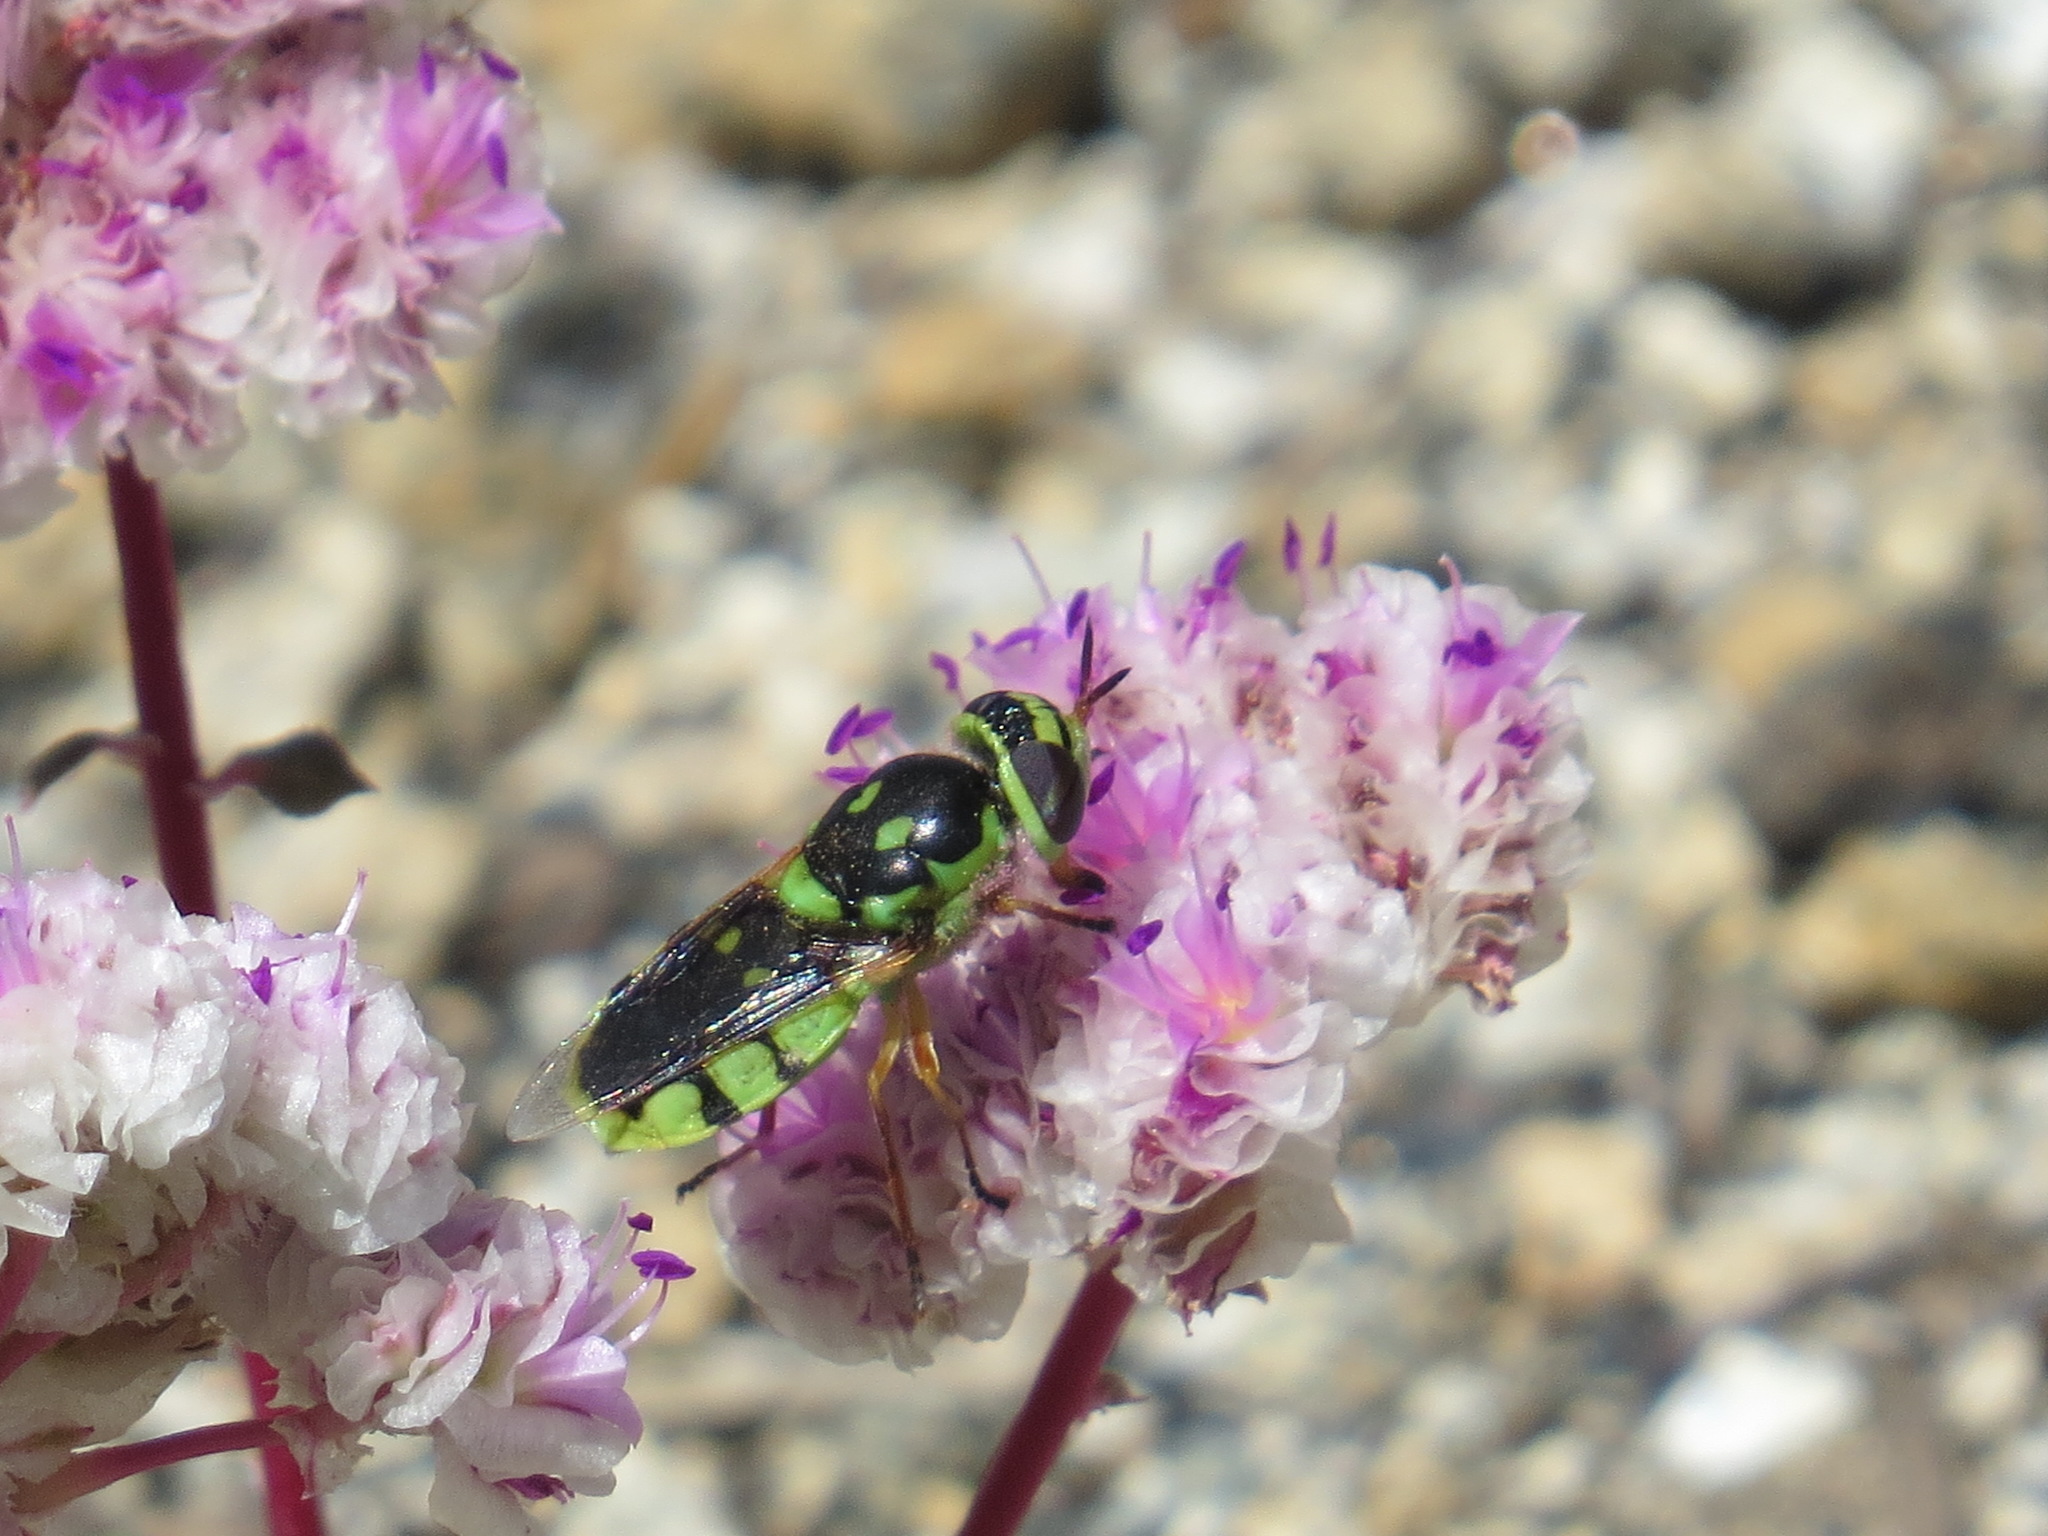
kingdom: Animalia
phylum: Arthropoda
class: Insecta
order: Diptera
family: Stratiomyidae
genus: Hedriodiscus
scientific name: Hedriodiscus binotatus
